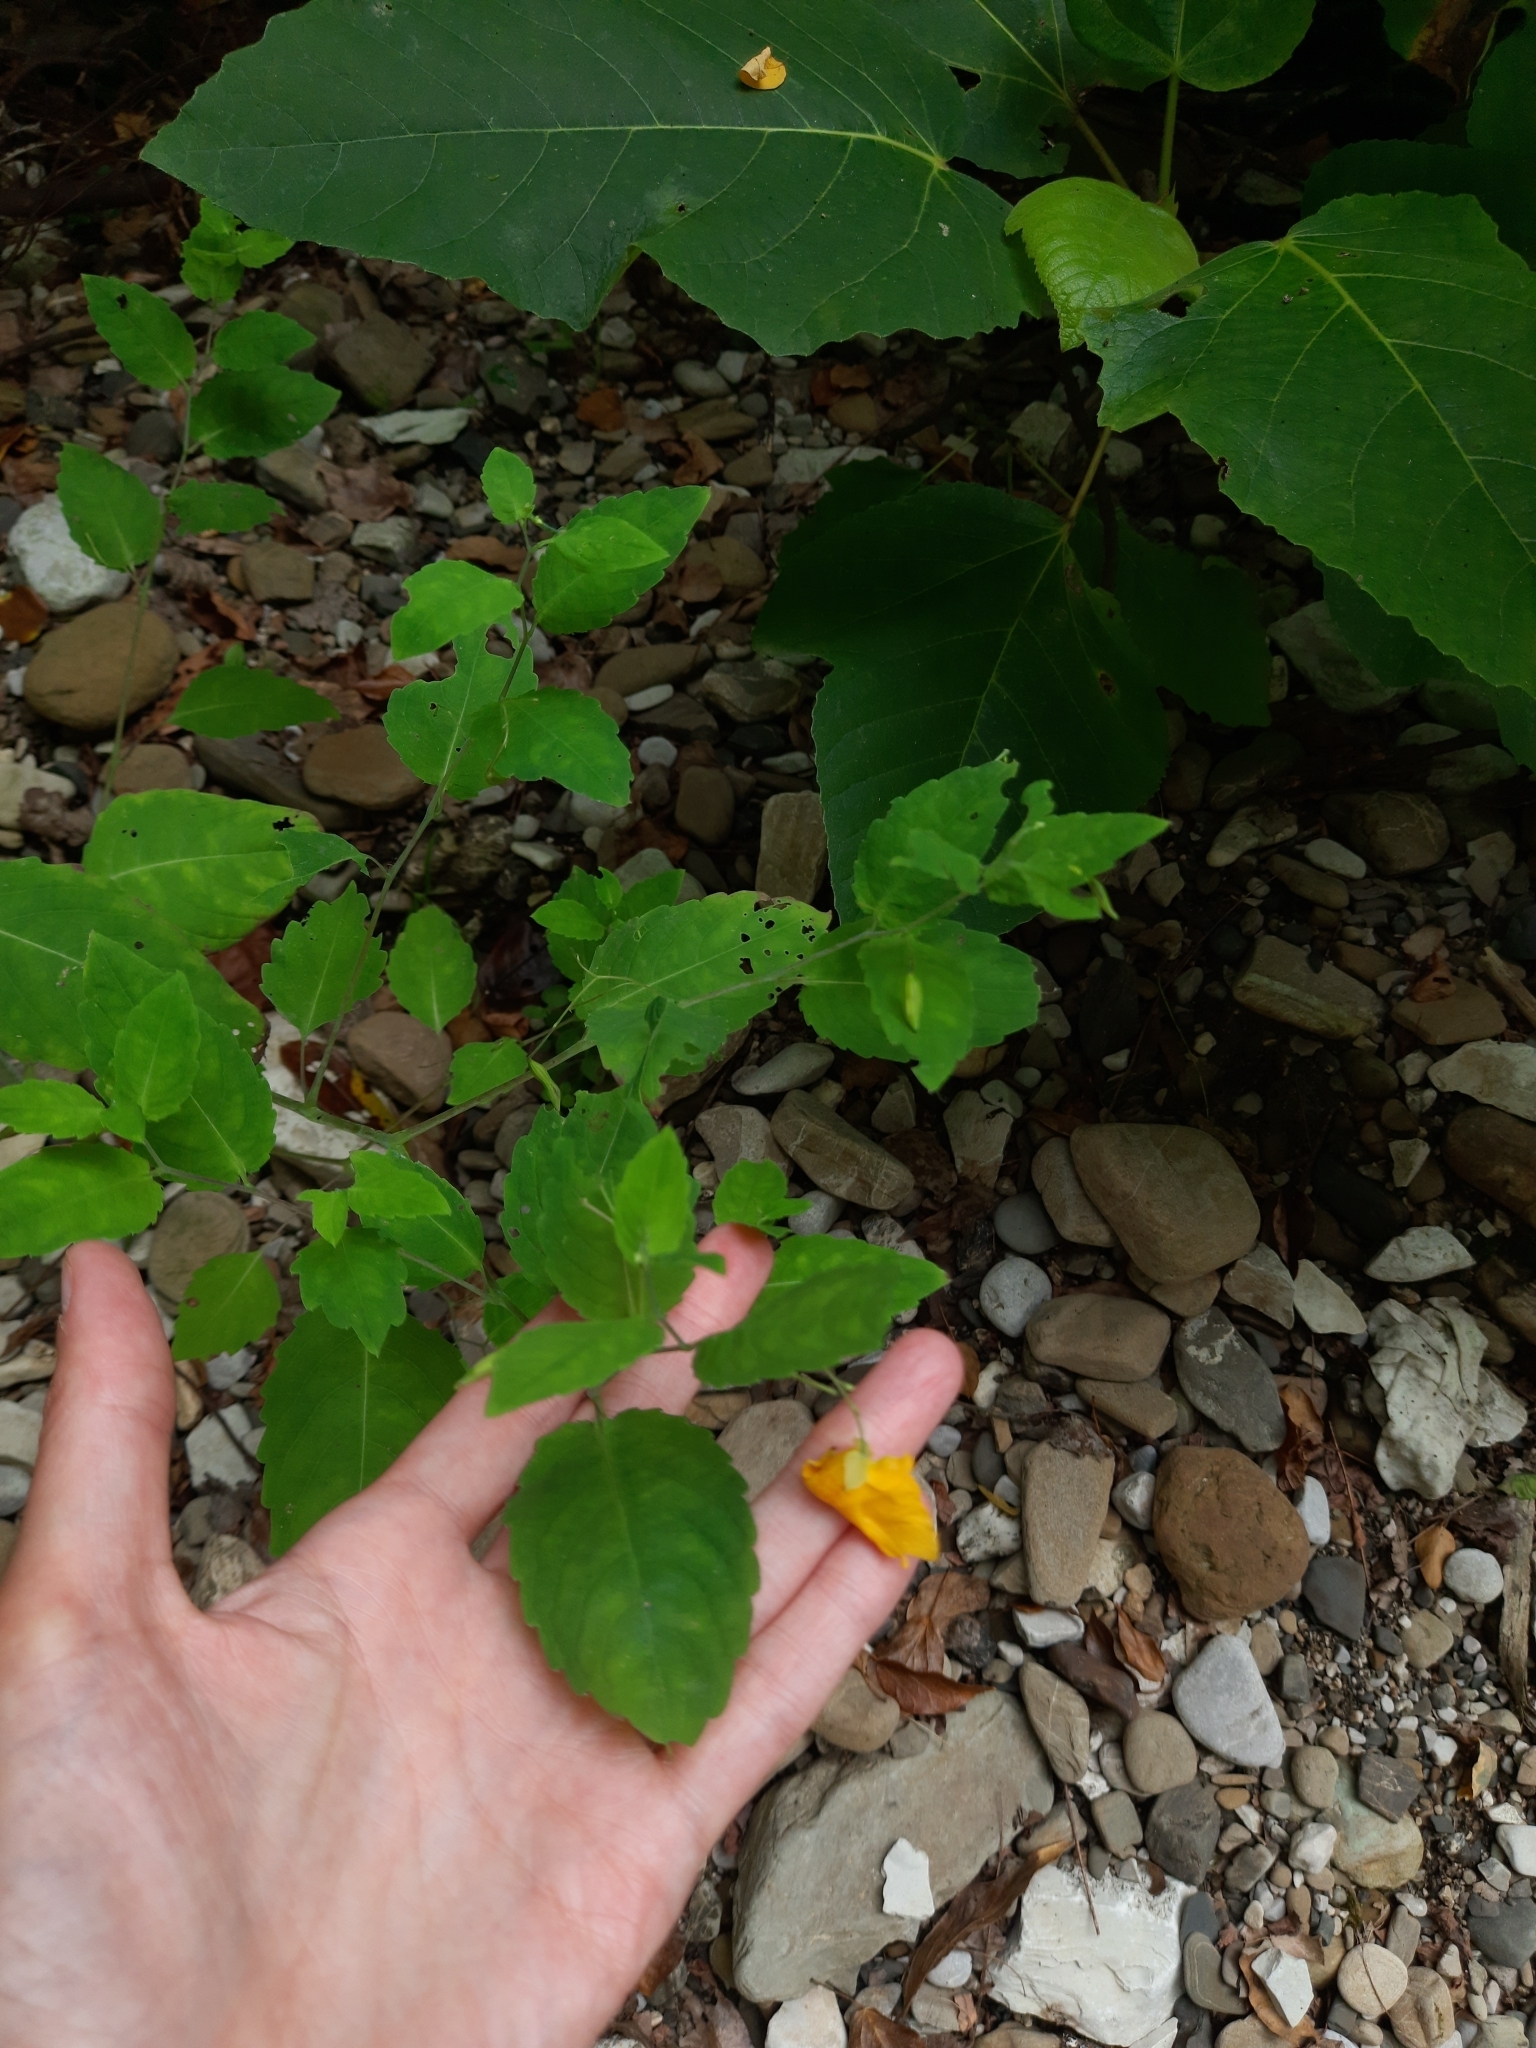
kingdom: Plantae
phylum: Tracheophyta
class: Magnoliopsida
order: Ericales
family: Balsaminaceae
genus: Impatiens
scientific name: Impatiens noli-tangere
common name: Touch-me-not balsam
